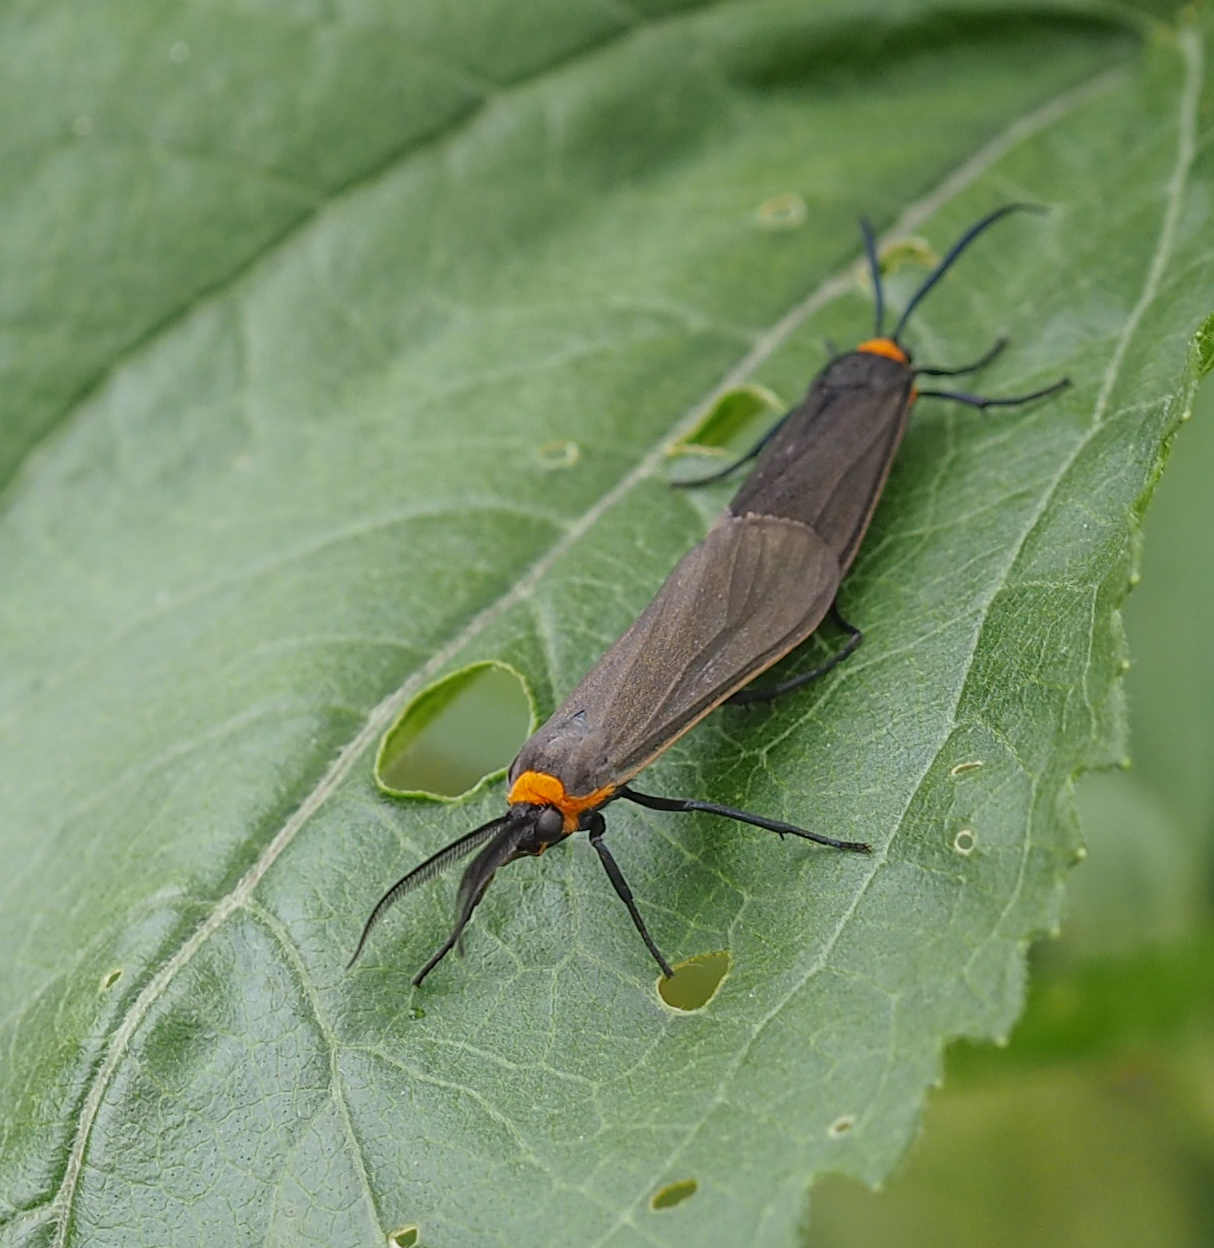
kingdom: Animalia
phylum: Arthropoda
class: Insecta
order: Lepidoptera
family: Erebidae
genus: Cisseps
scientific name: Cisseps fulvicollis
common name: Yellow-collared scape moth
